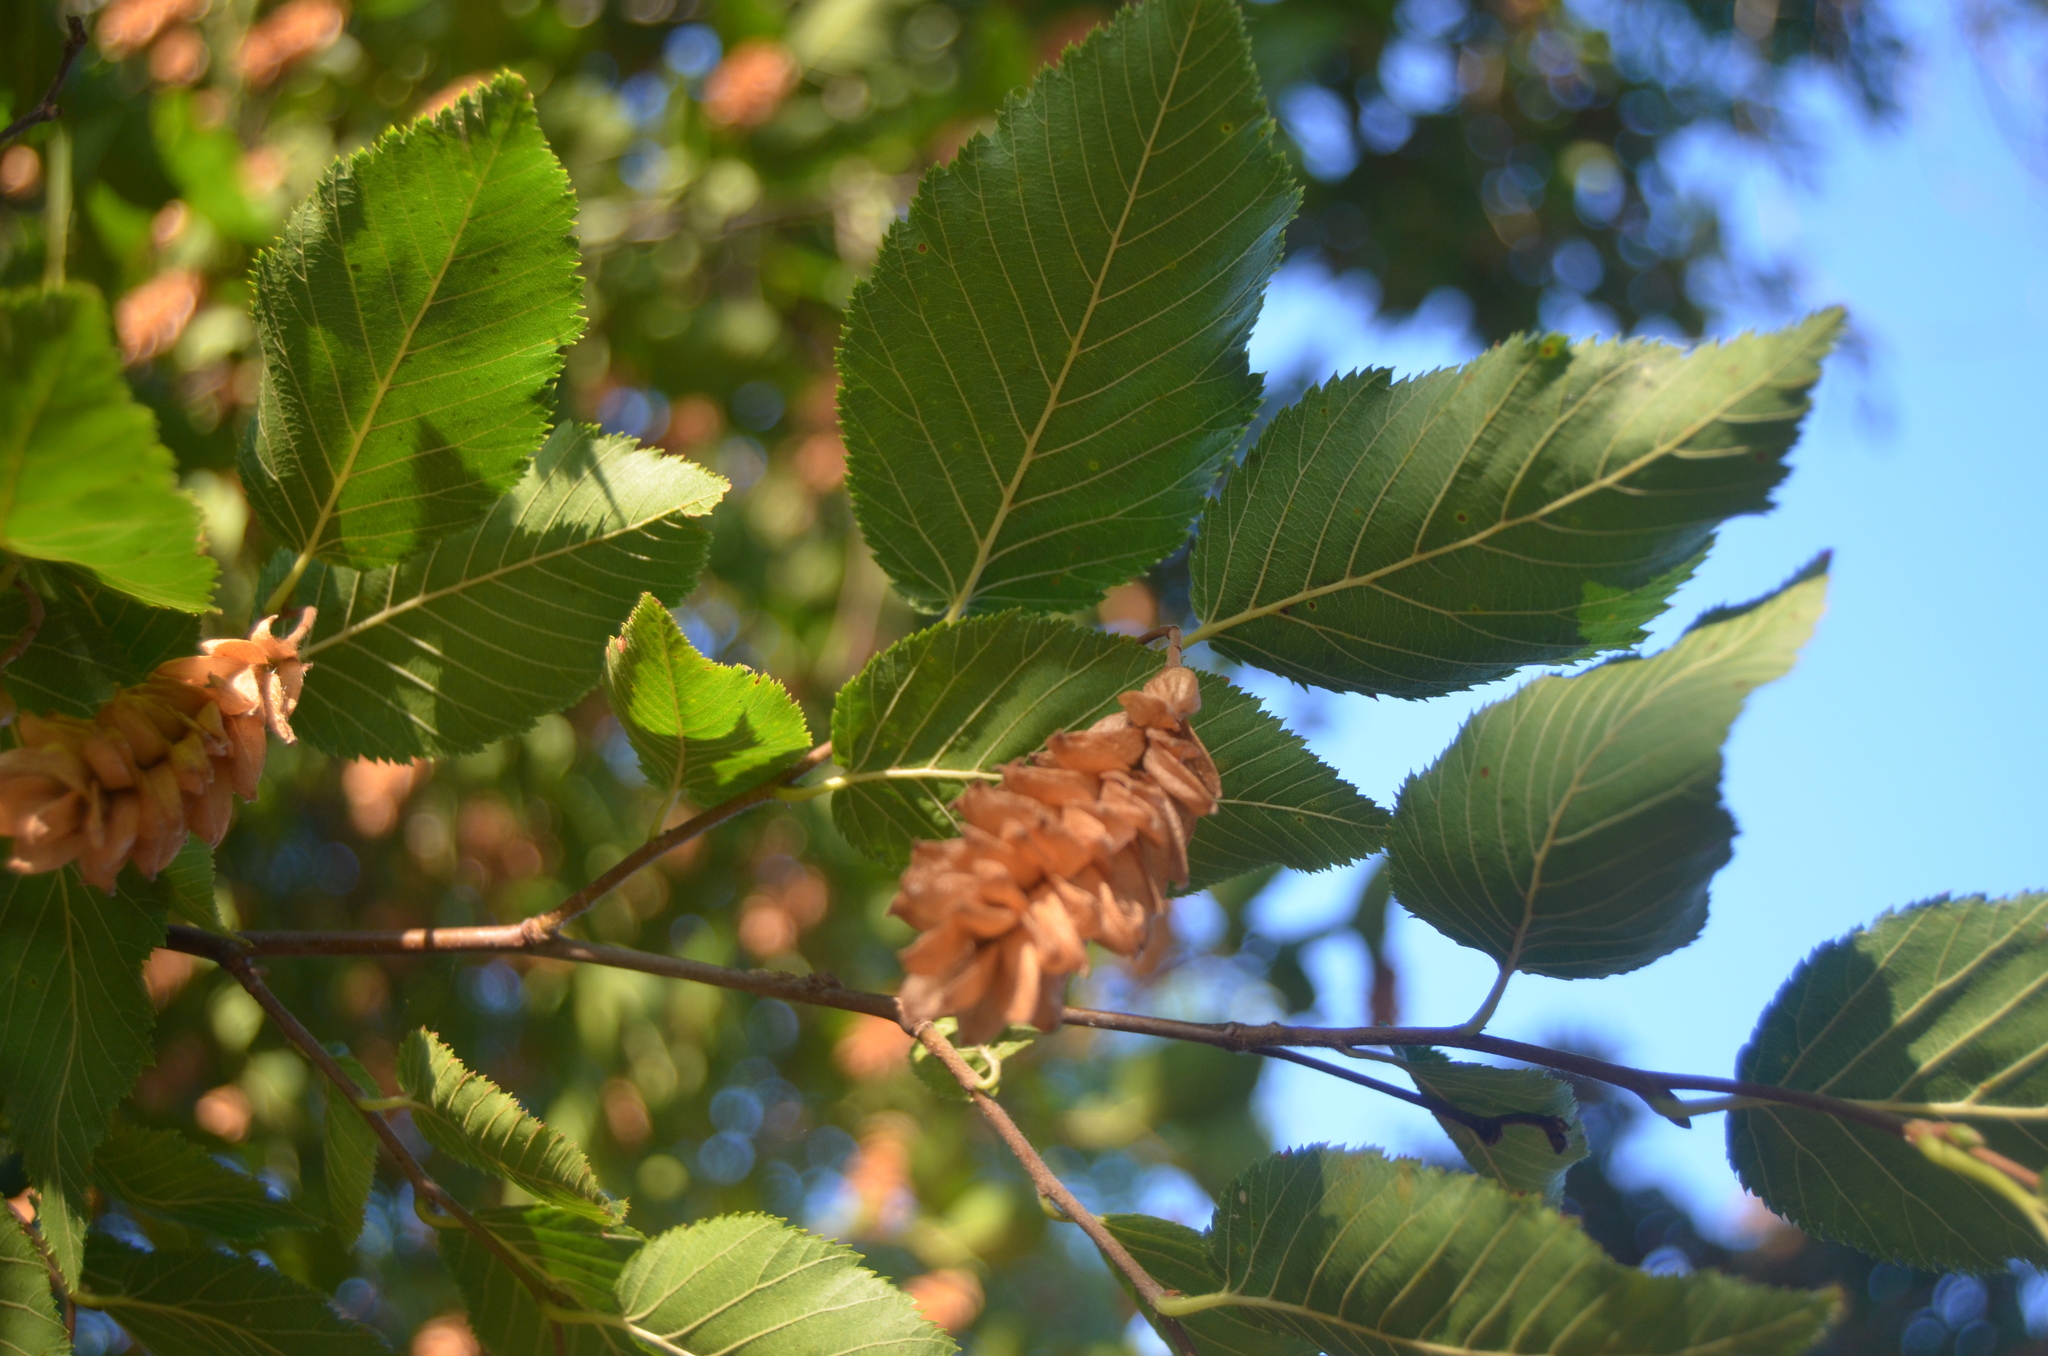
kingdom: Plantae
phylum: Tracheophyta
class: Magnoliopsida
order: Fagales
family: Betulaceae
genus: Ostrya
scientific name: Ostrya carpinifolia
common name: European hop-hornbeam
